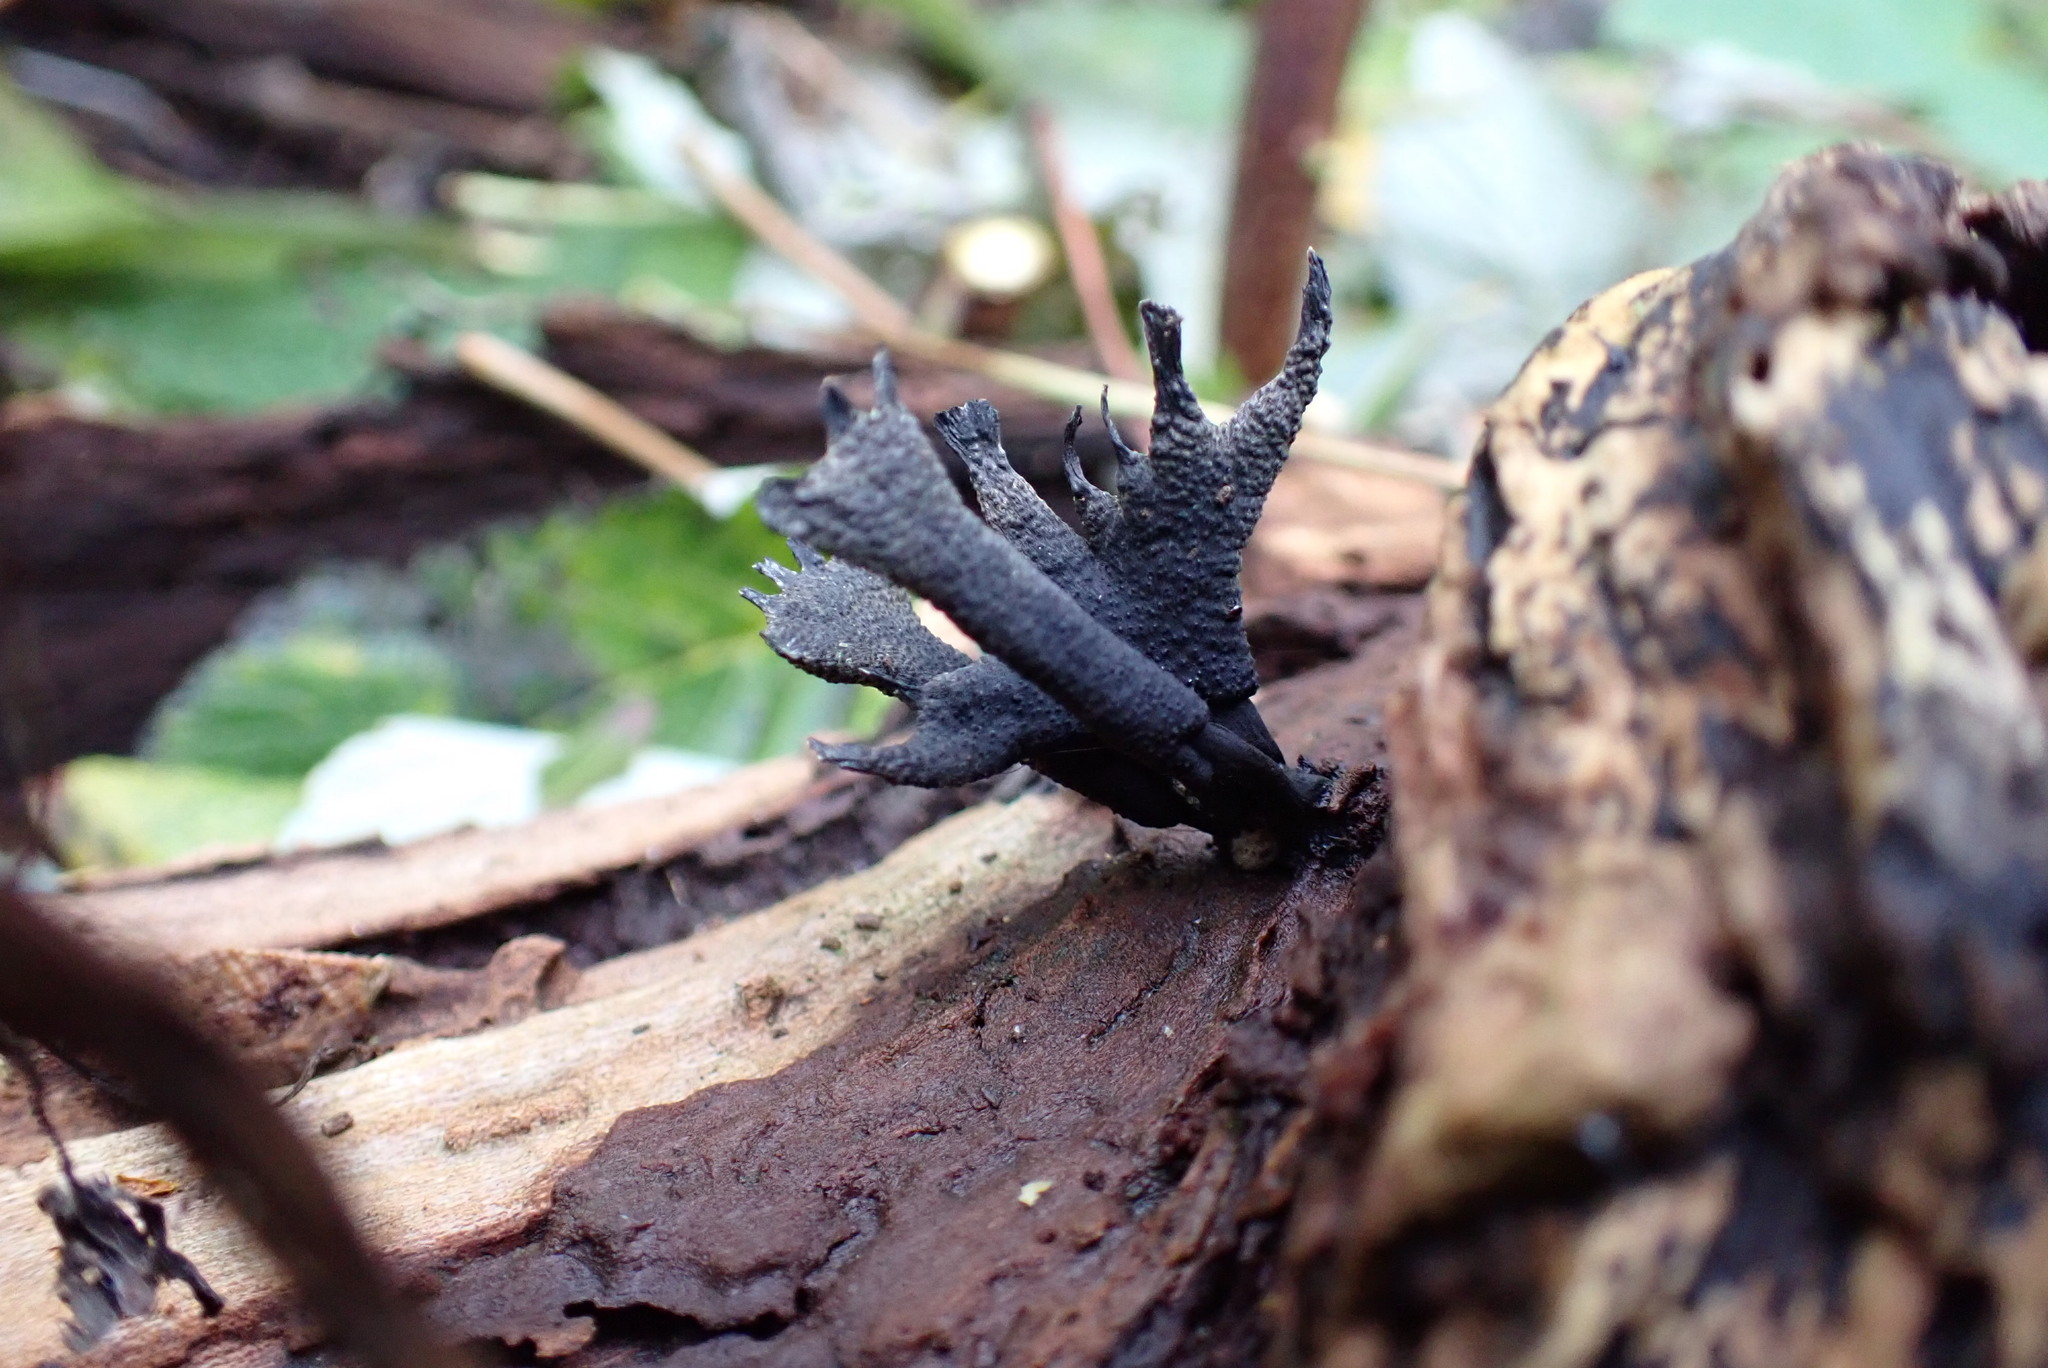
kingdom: Fungi
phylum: Ascomycota
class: Sordariomycetes
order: Xylariales
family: Xylariaceae
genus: Xylaria
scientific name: Xylaria hypoxylon
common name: Candle-snuff fungus
